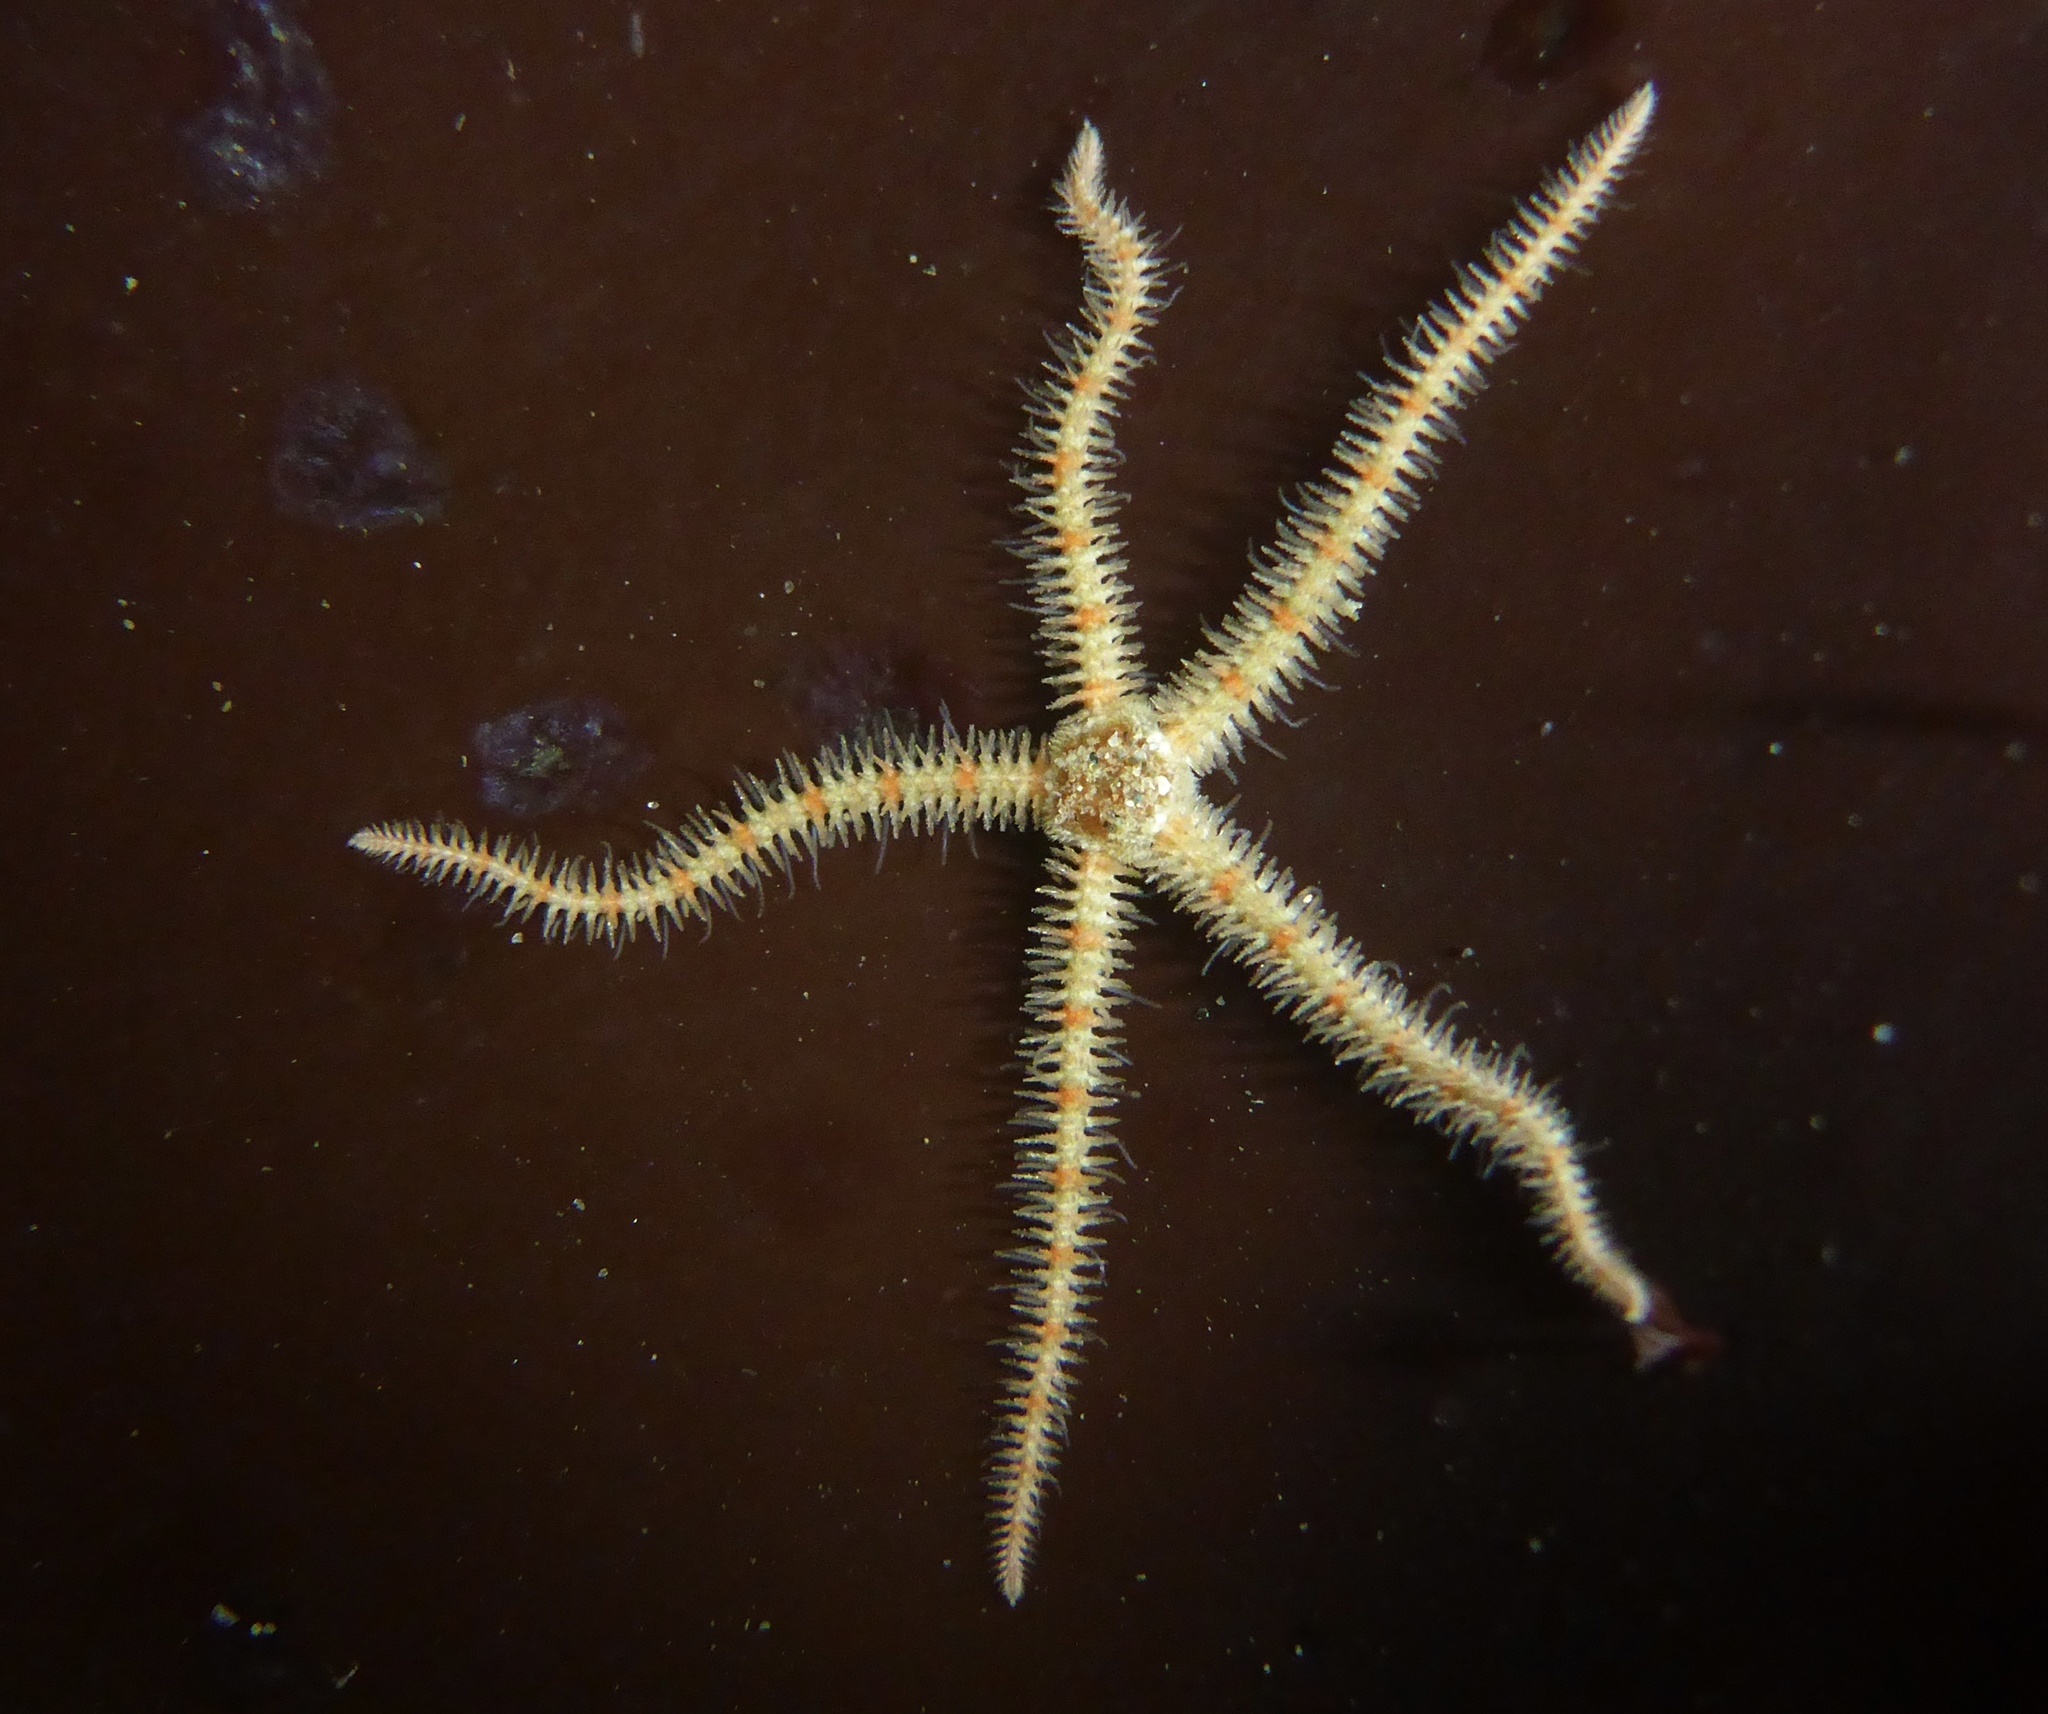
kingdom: Animalia
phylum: Echinodermata
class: Ophiuroidea
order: Amphilepidida
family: Ophiotrichidae
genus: Ophiothrix
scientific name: Ophiothrix spiculata
